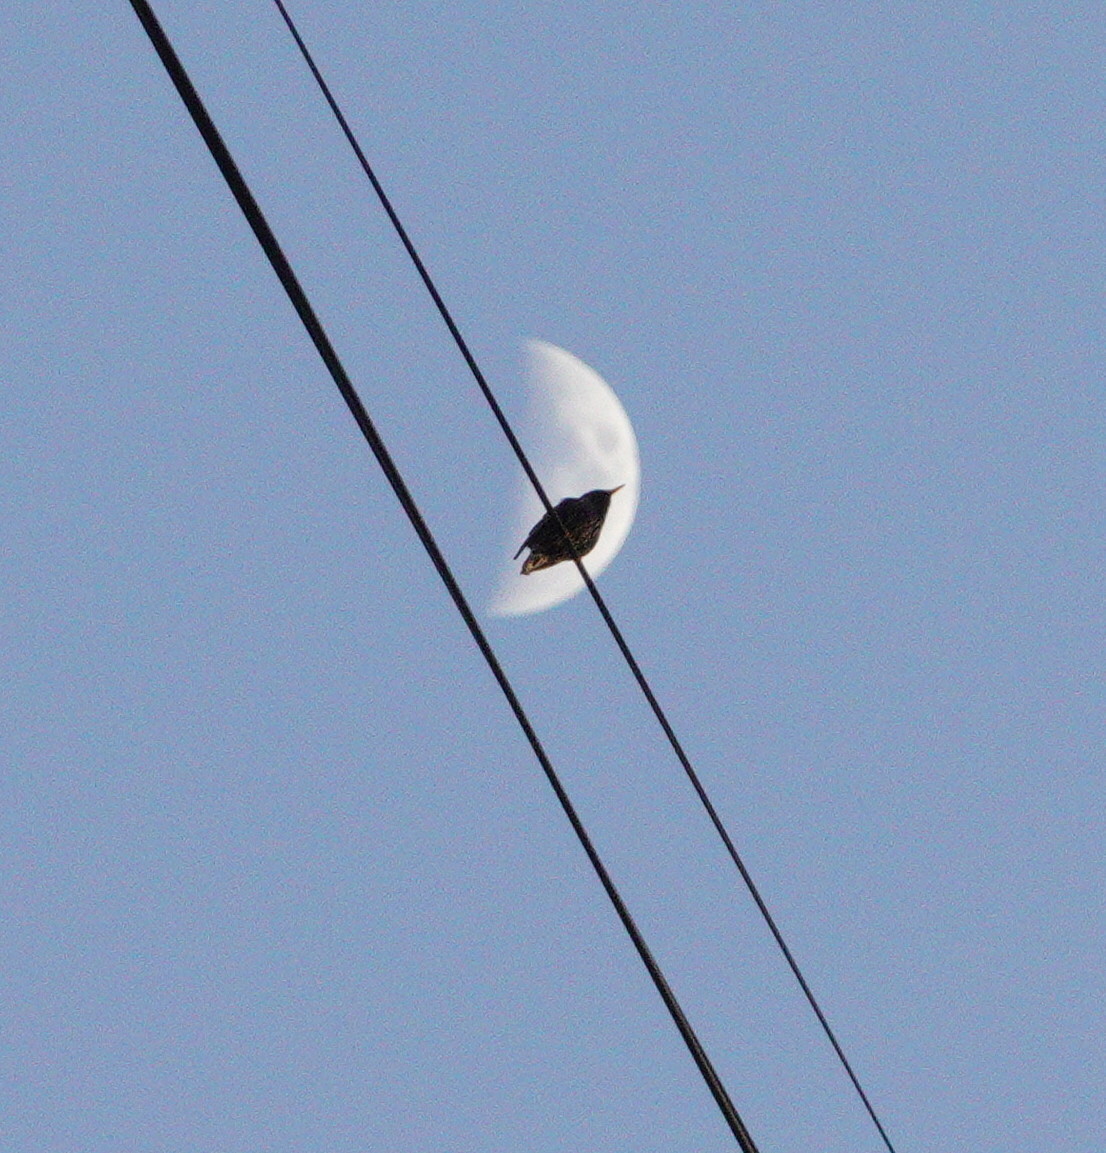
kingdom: Animalia
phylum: Chordata
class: Aves
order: Passeriformes
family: Sturnidae
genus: Sturnus
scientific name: Sturnus vulgaris
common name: Common starling
